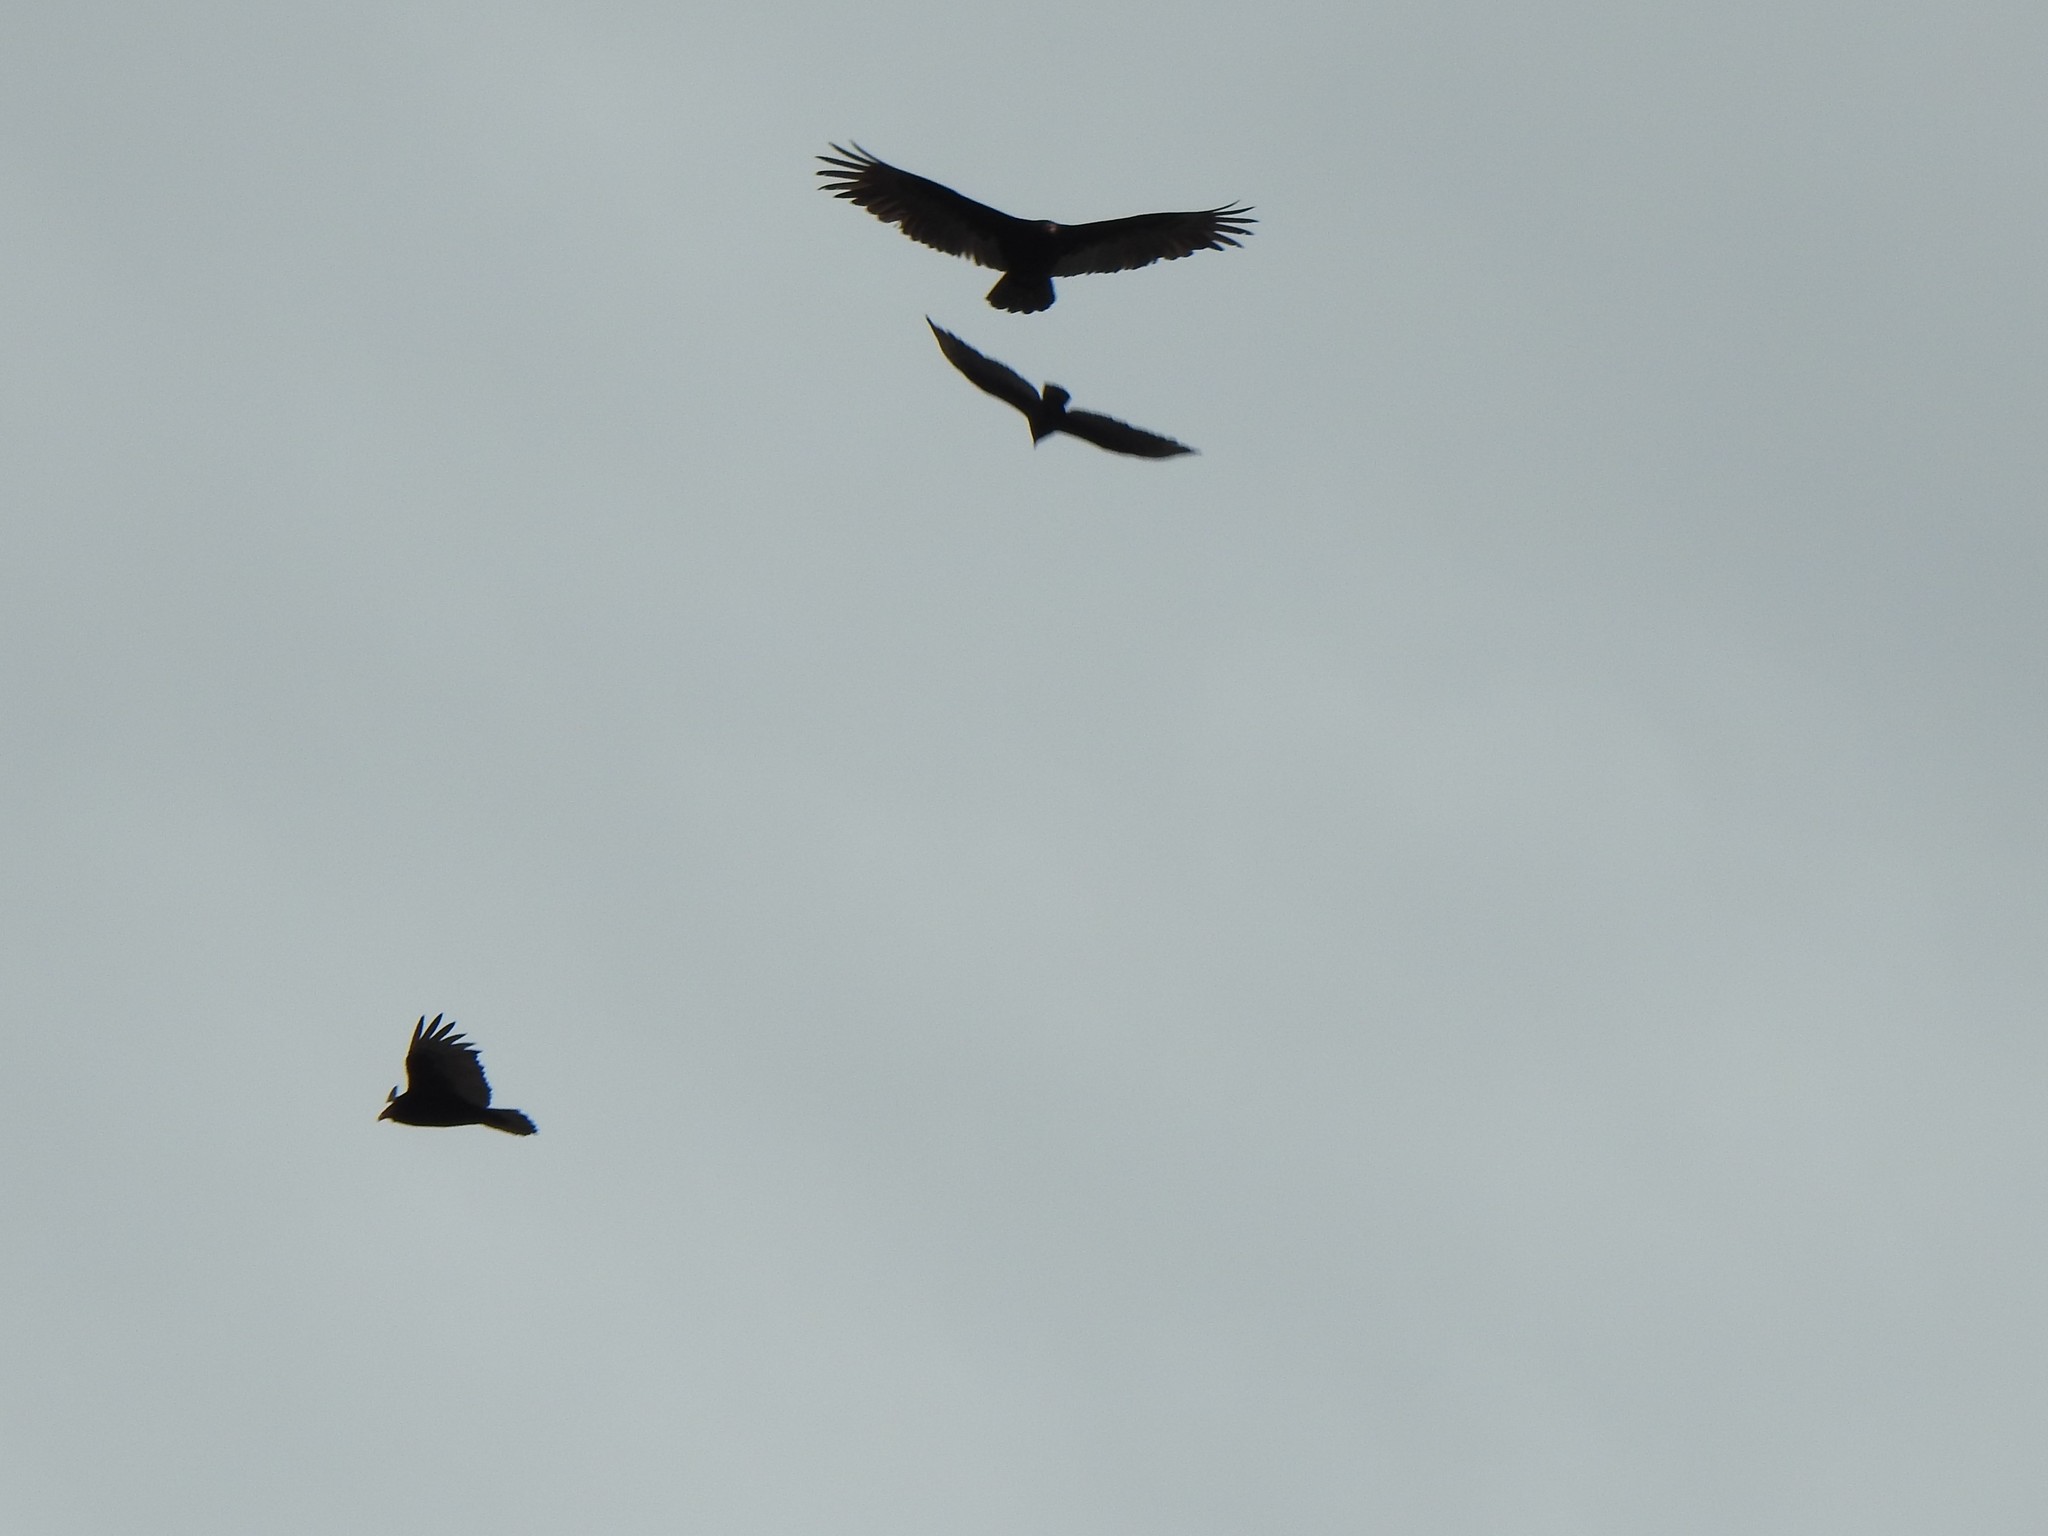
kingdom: Animalia
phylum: Chordata
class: Aves
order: Accipitriformes
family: Cathartidae
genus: Cathartes
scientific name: Cathartes aura
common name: Turkey vulture
